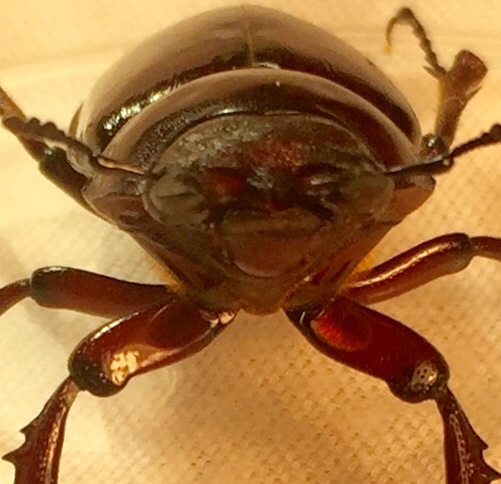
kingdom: Animalia
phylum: Arthropoda
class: Insecta
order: Coleoptera
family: Lucanidae
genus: Lucanus
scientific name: Lucanus elaphus
